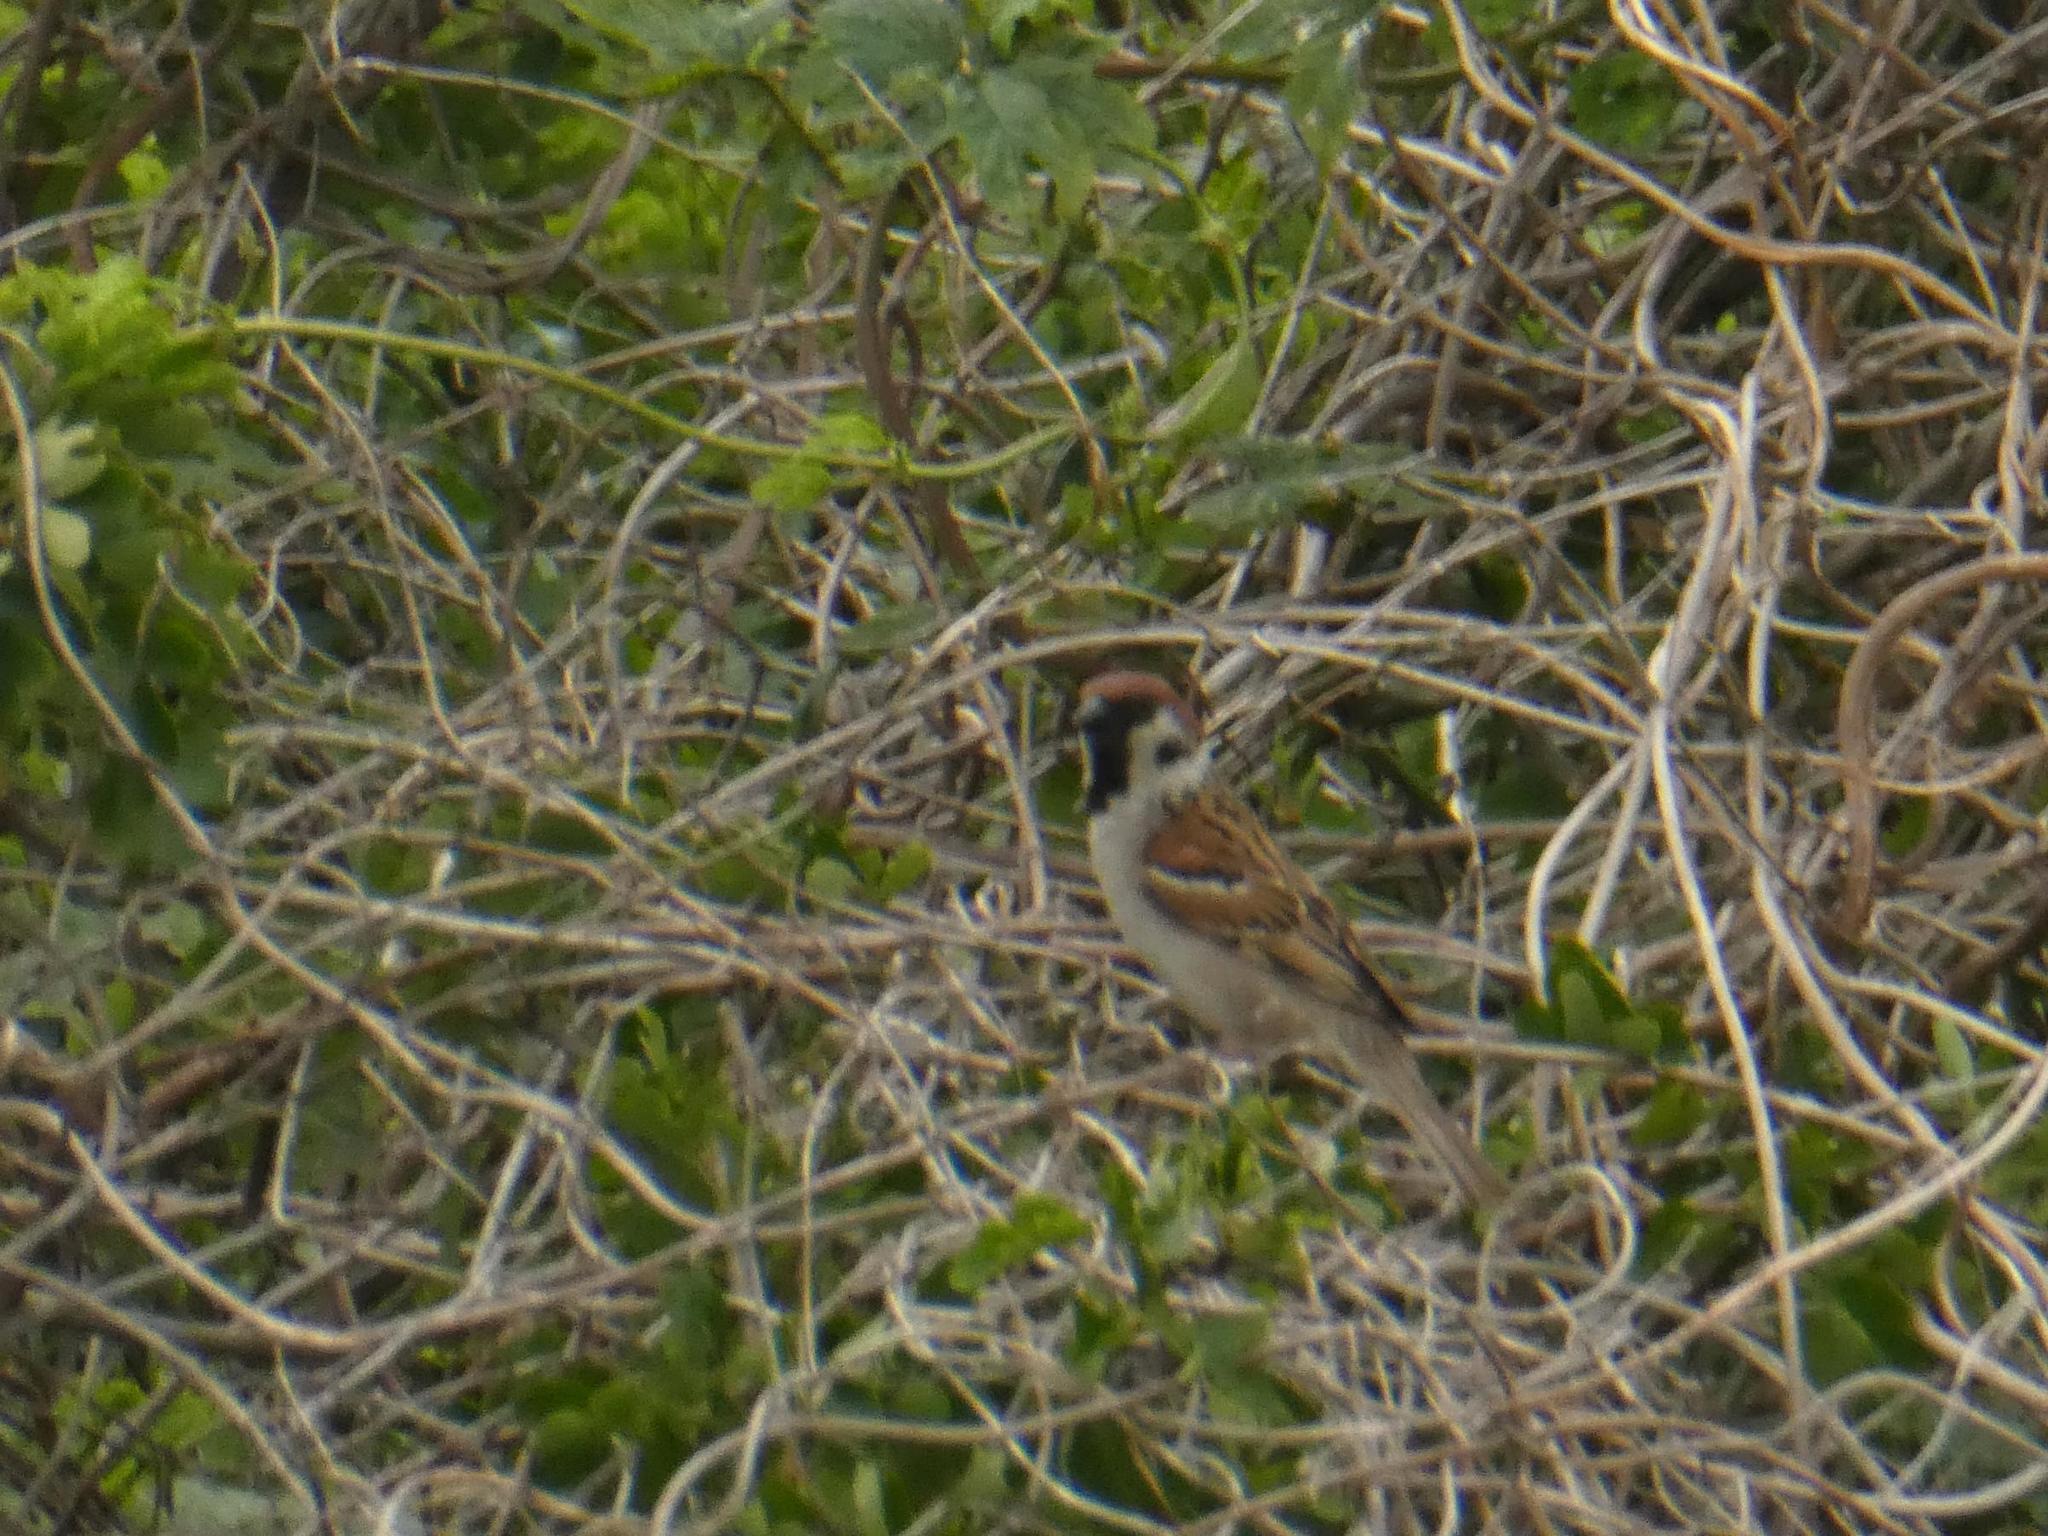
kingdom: Animalia
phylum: Chordata
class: Aves
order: Passeriformes
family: Passeridae
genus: Passer
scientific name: Passer montanus
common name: Eurasian tree sparrow
